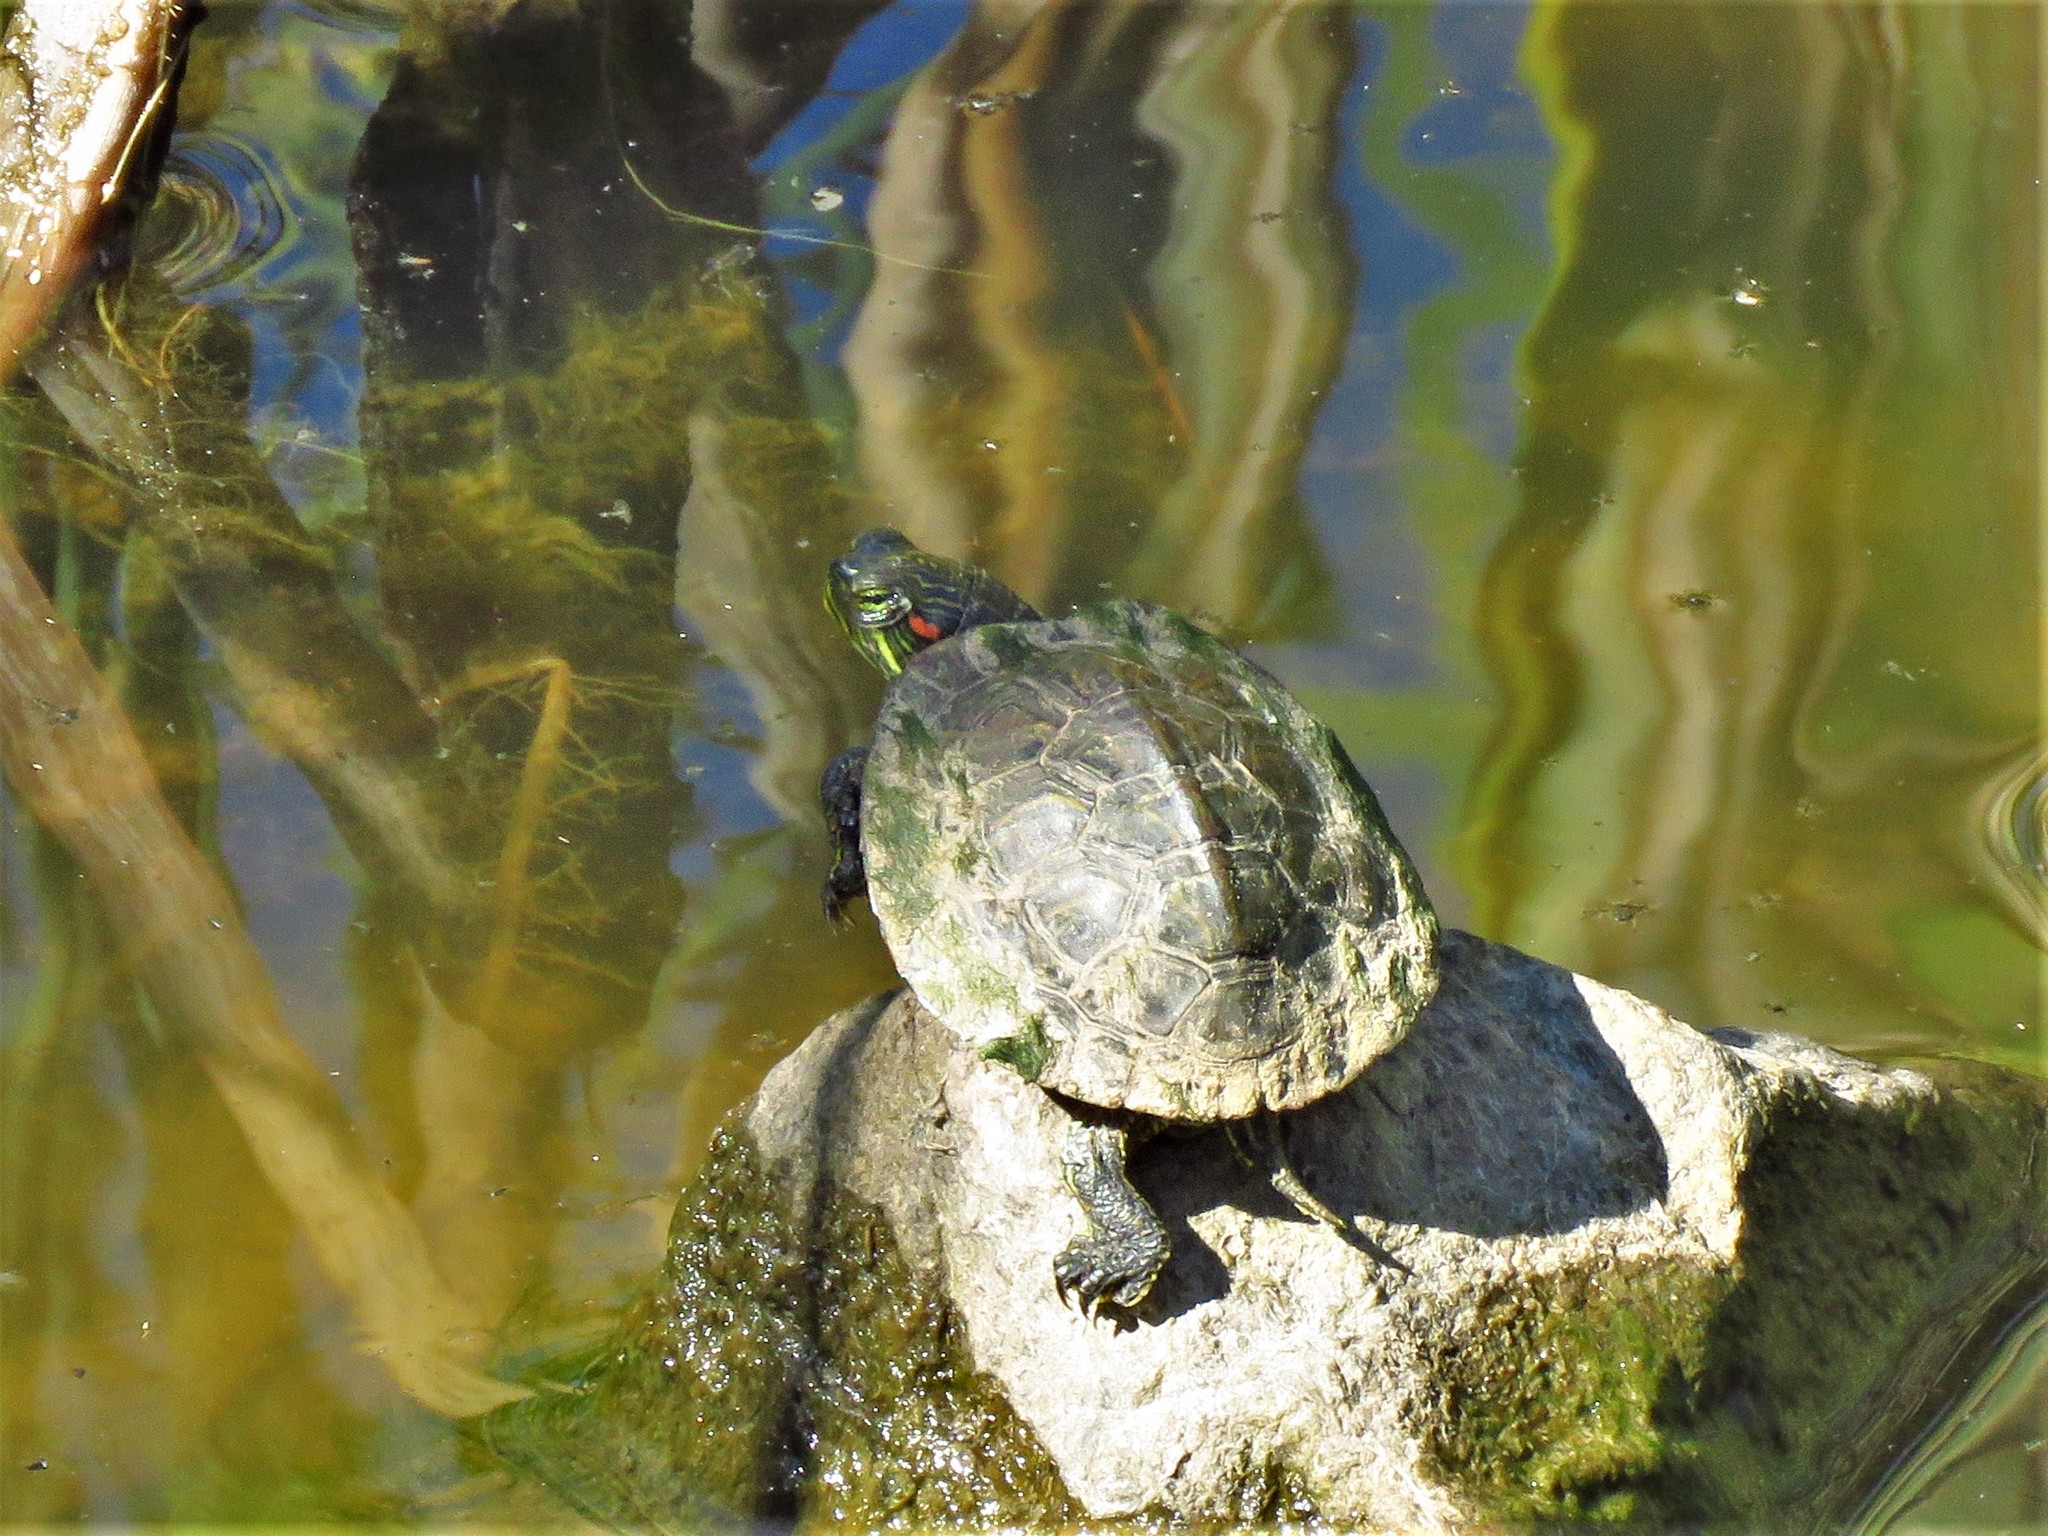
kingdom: Animalia
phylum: Chordata
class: Testudines
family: Emydidae
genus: Trachemys
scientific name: Trachemys scripta
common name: Slider
